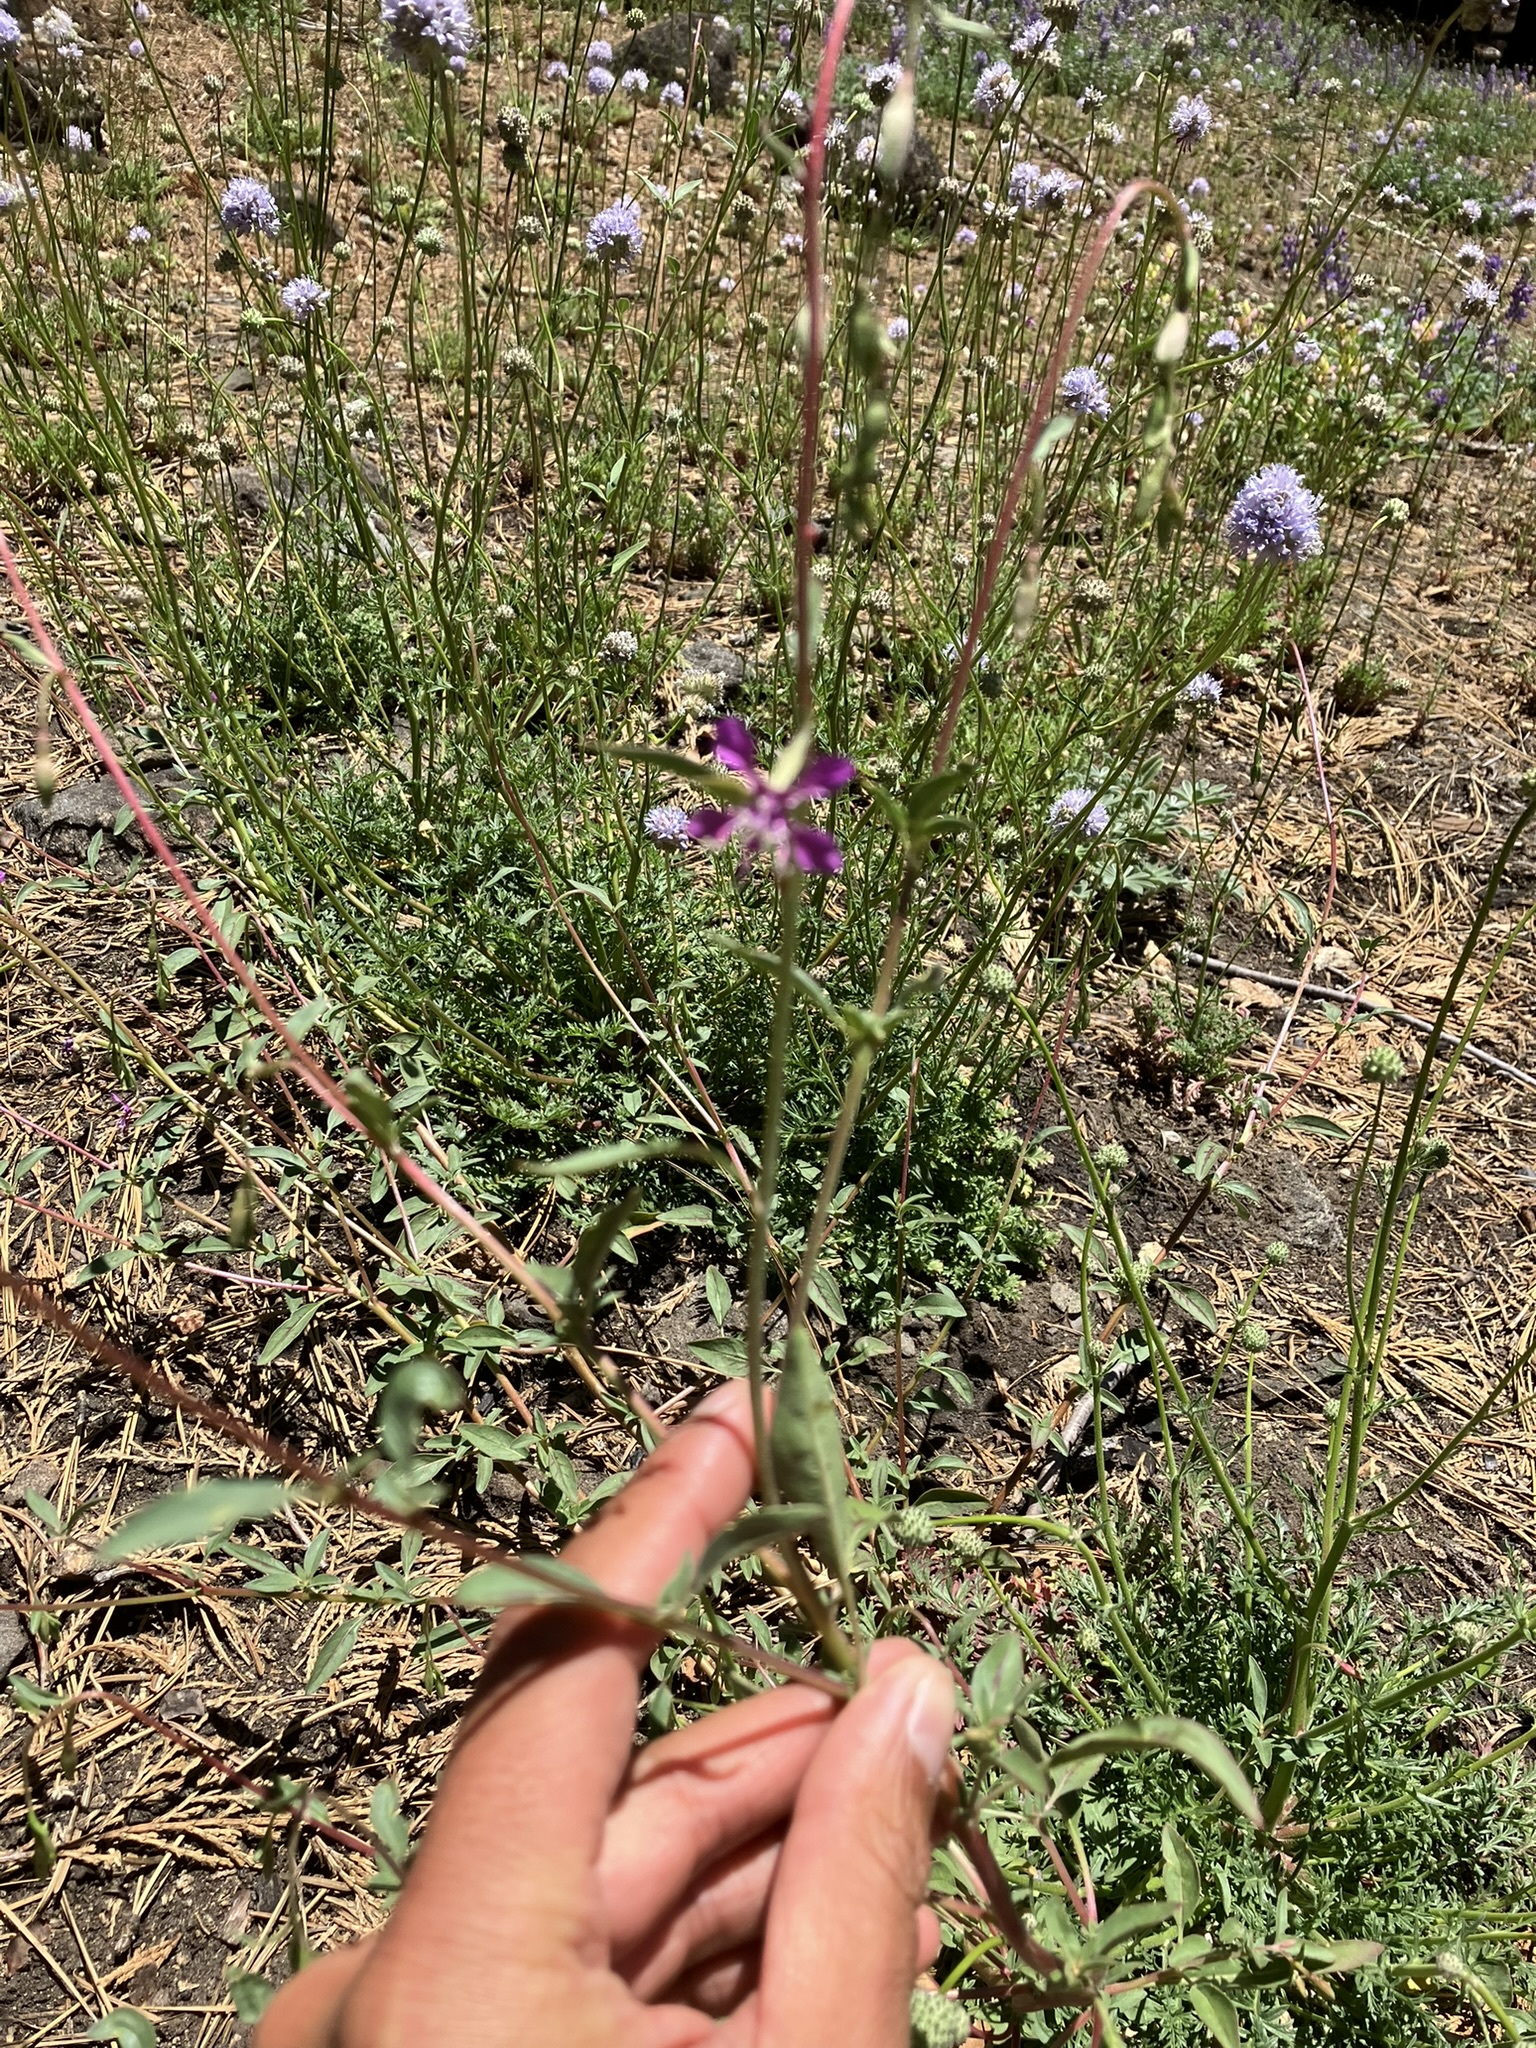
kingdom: Plantae
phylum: Tracheophyta
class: Magnoliopsida
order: Myrtales
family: Onagraceae
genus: Clarkia
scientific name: Clarkia rhomboidea
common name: Broadleaf clarkia
